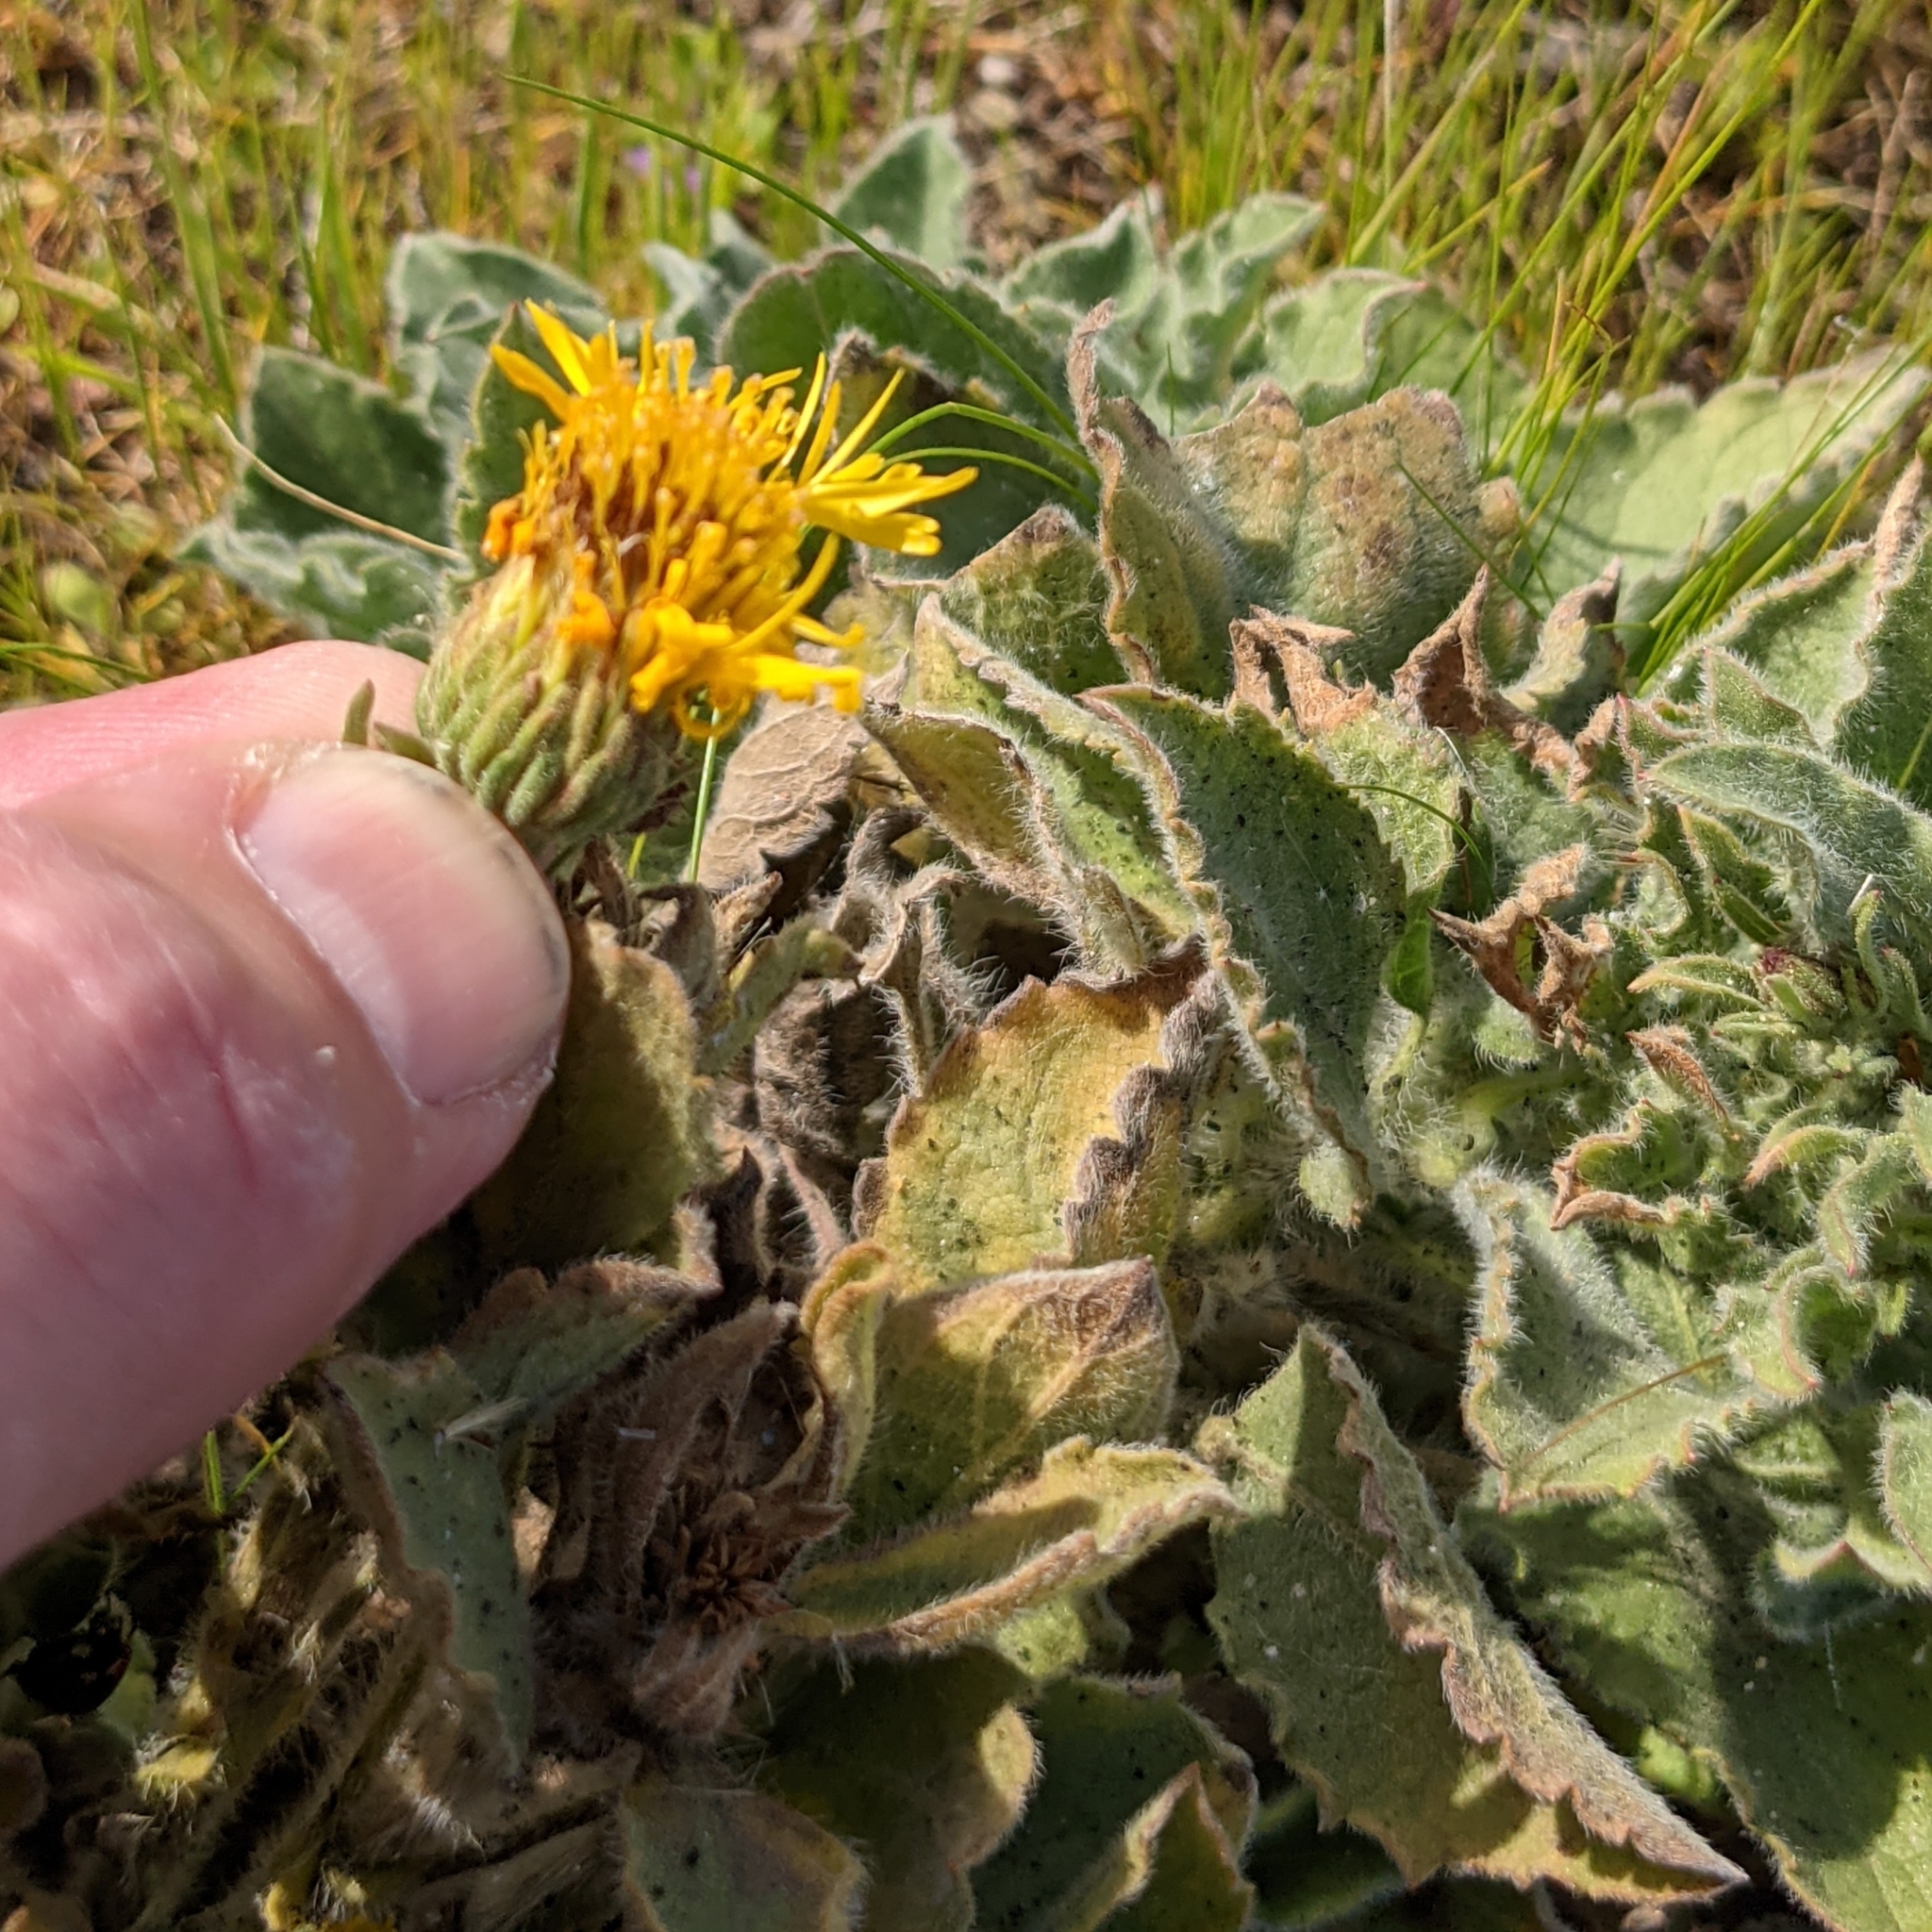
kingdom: Plantae
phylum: Tracheophyta
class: Magnoliopsida
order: Asterales
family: Asteraceae
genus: Heterotheca
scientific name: Heterotheca grandiflora
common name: Telegraphweed
